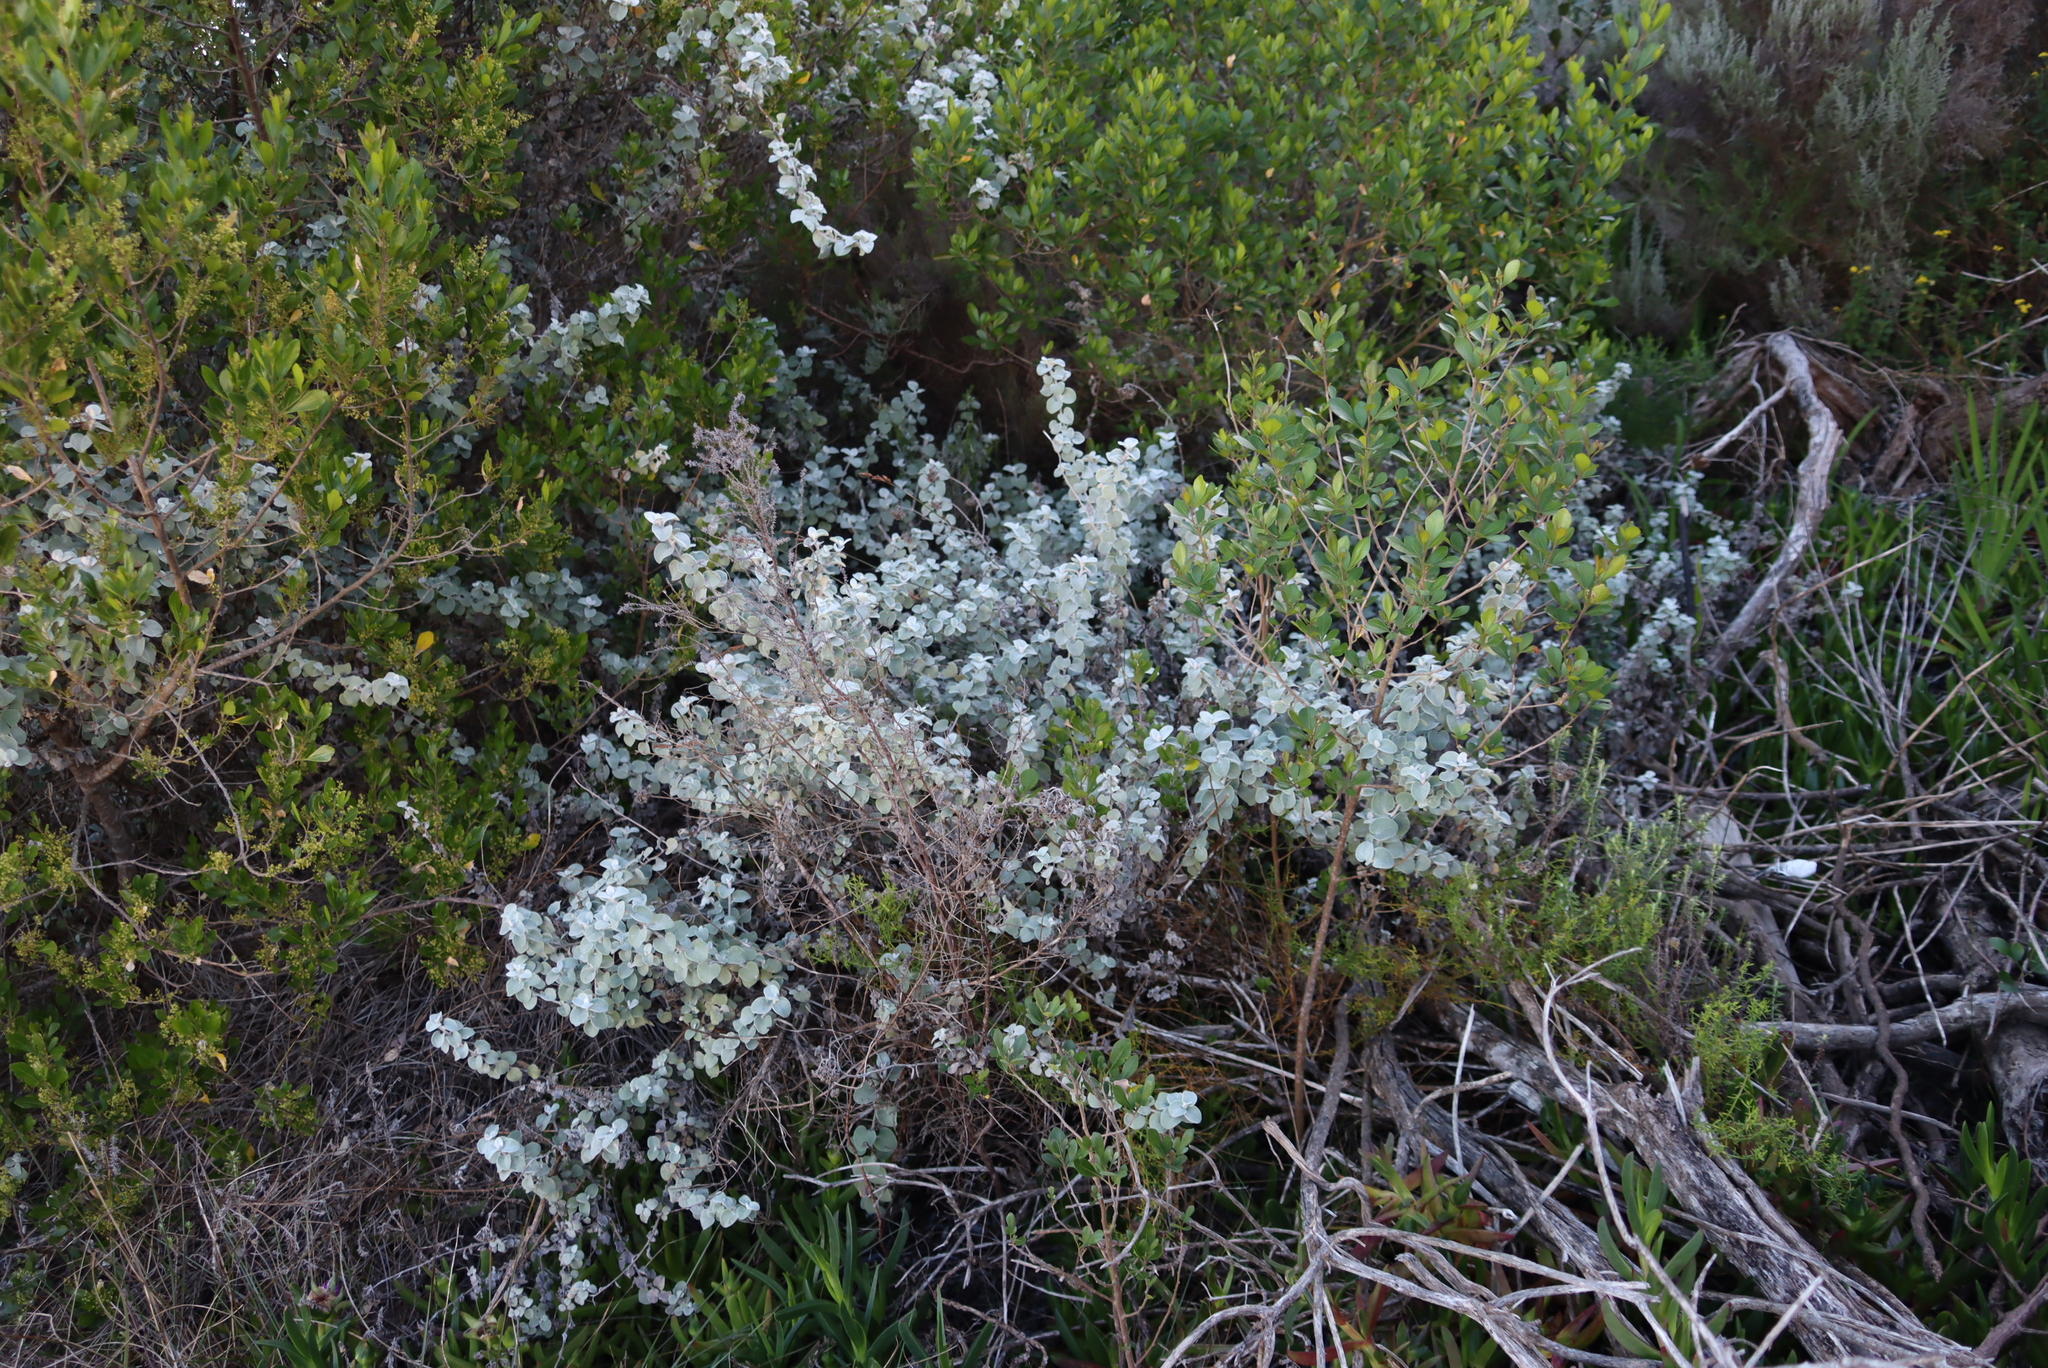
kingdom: Plantae
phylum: Tracheophyta
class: Magnoliopsida
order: Asterales
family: Asteraceae
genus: Helichrysum
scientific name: Helichrysum petiolare
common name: Licorice-plant
